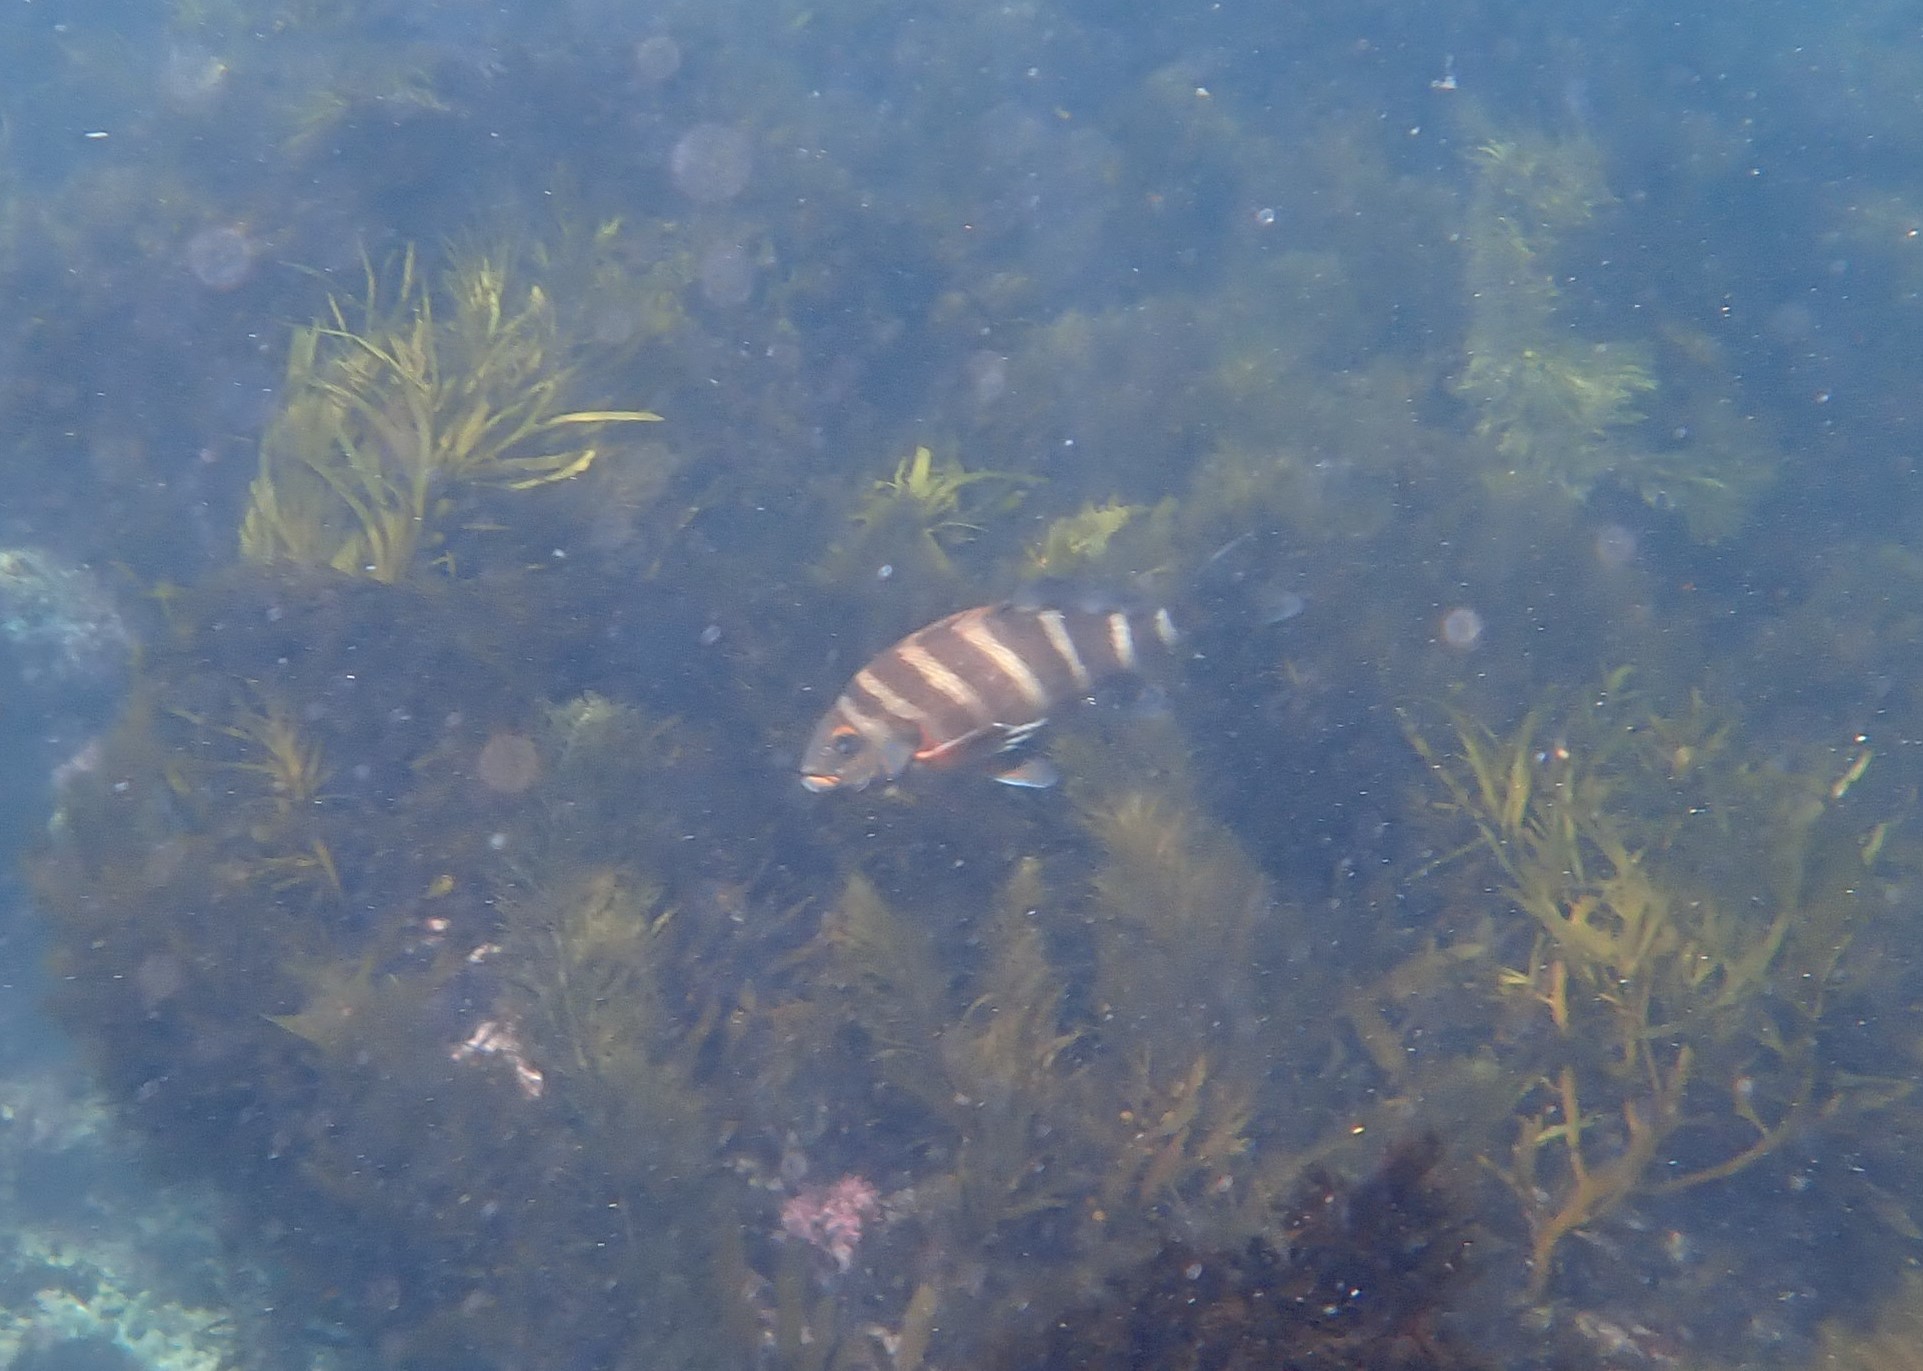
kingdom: Animalia
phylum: Chordata
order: Perciformes
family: Cheilodactylidae
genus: Cheilodactylus
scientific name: Cheilodactylus spectabilis
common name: Red moki
